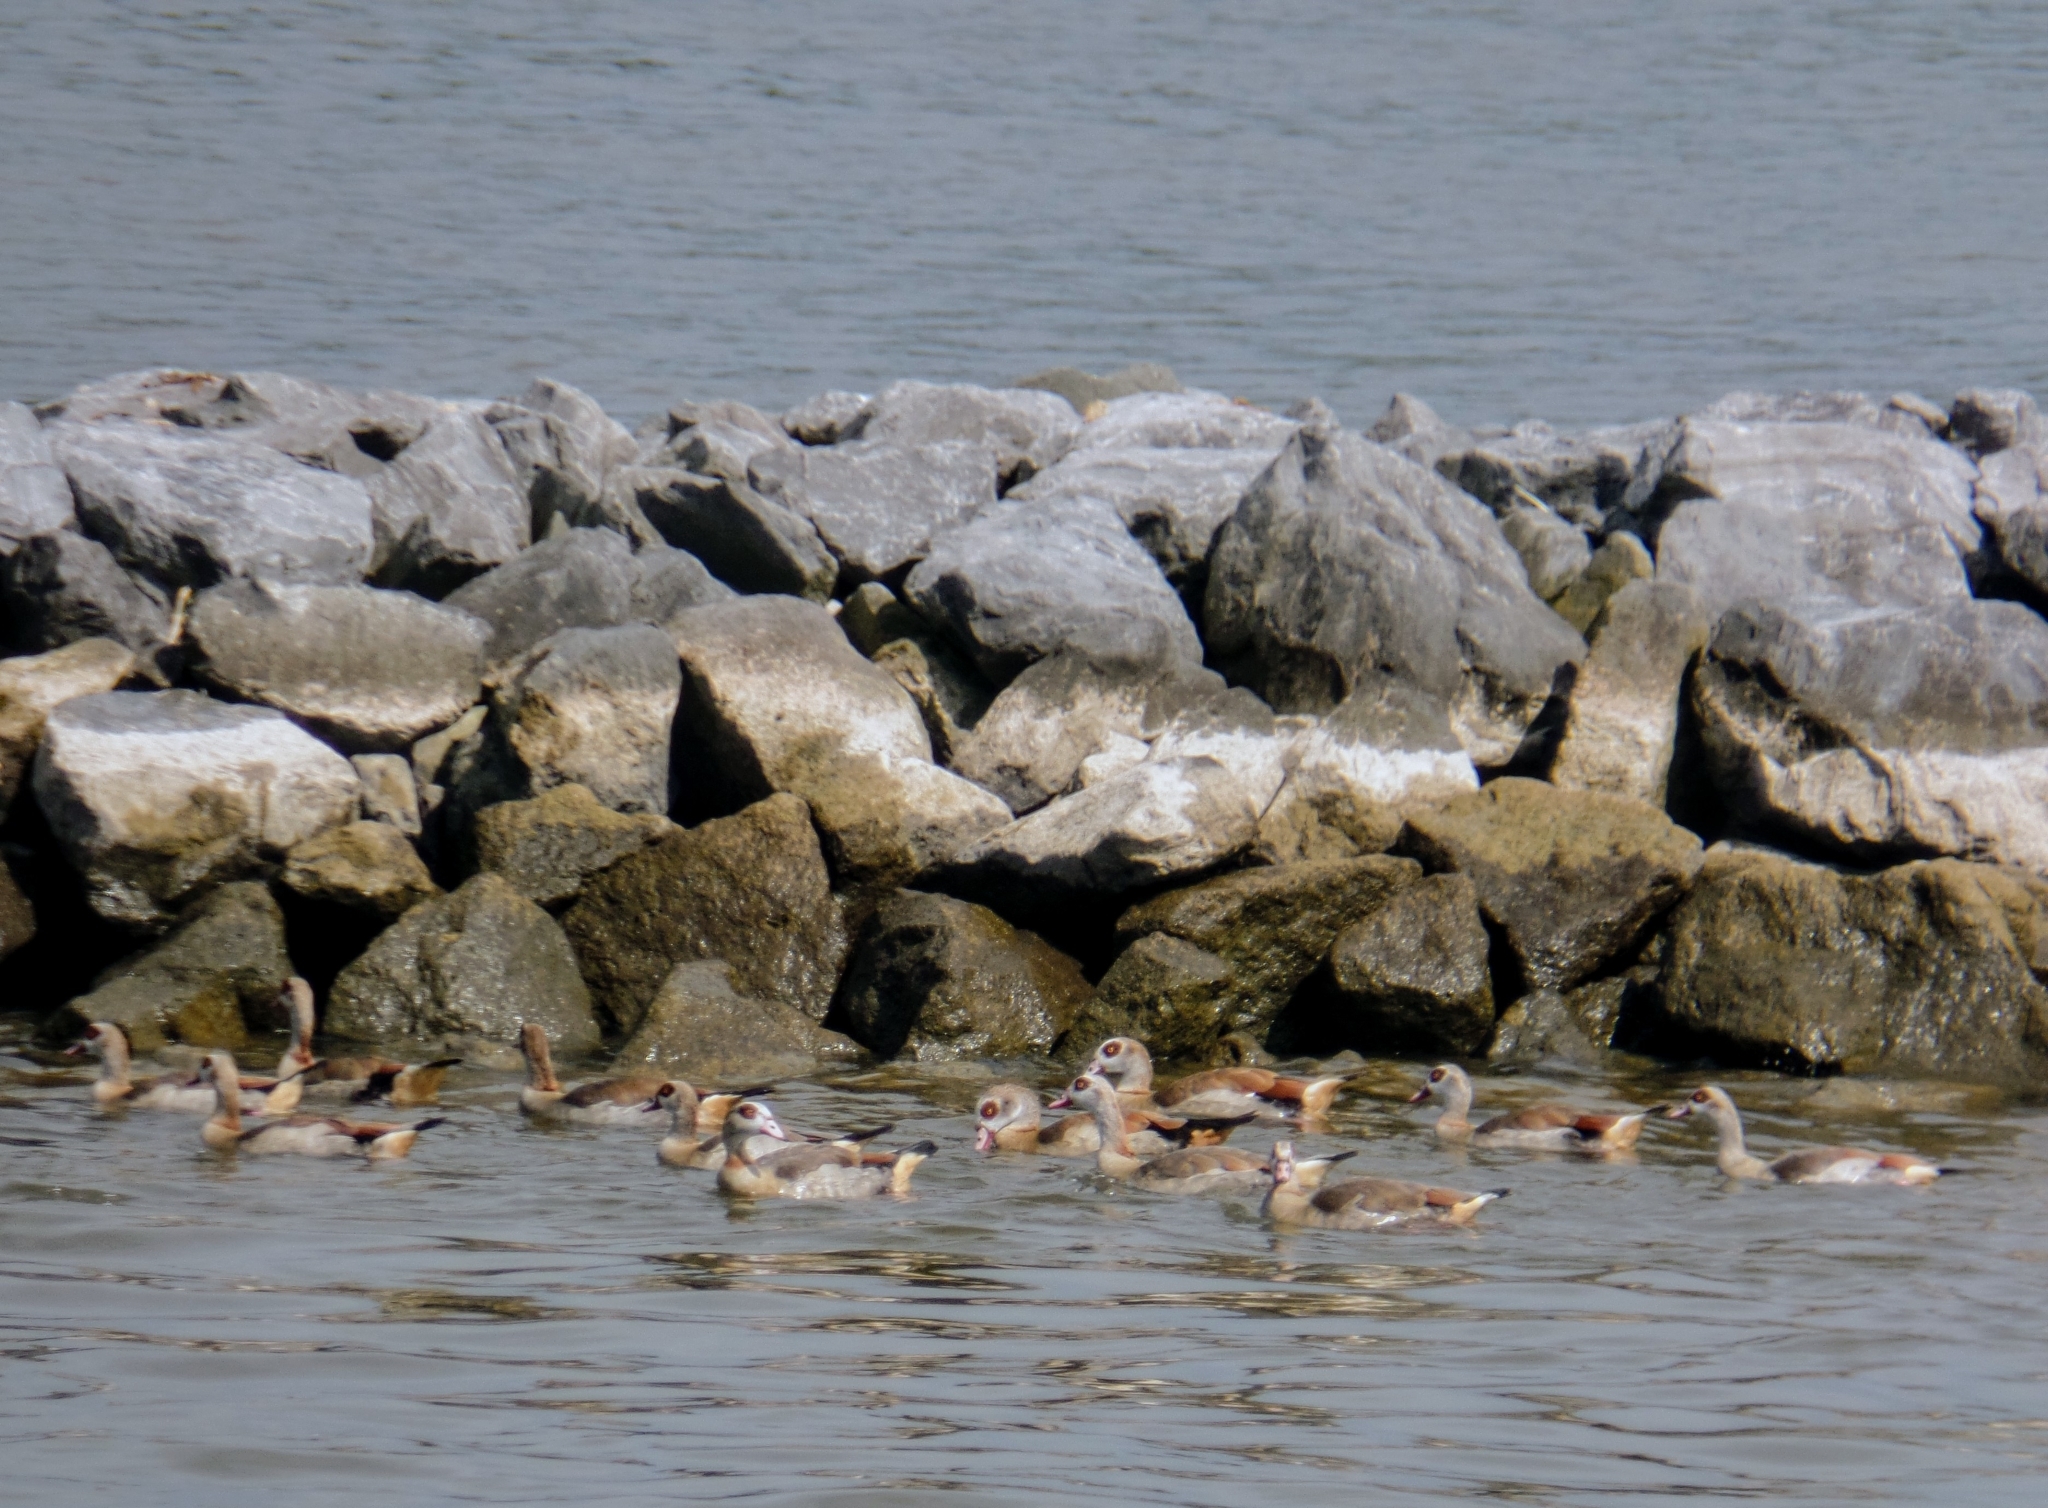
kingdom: Animalia
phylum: Chordata
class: Aves
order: Anseriformes
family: Anatidae
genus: Alopochen
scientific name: Alopochen aegyptiaca
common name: Egyptian goose
